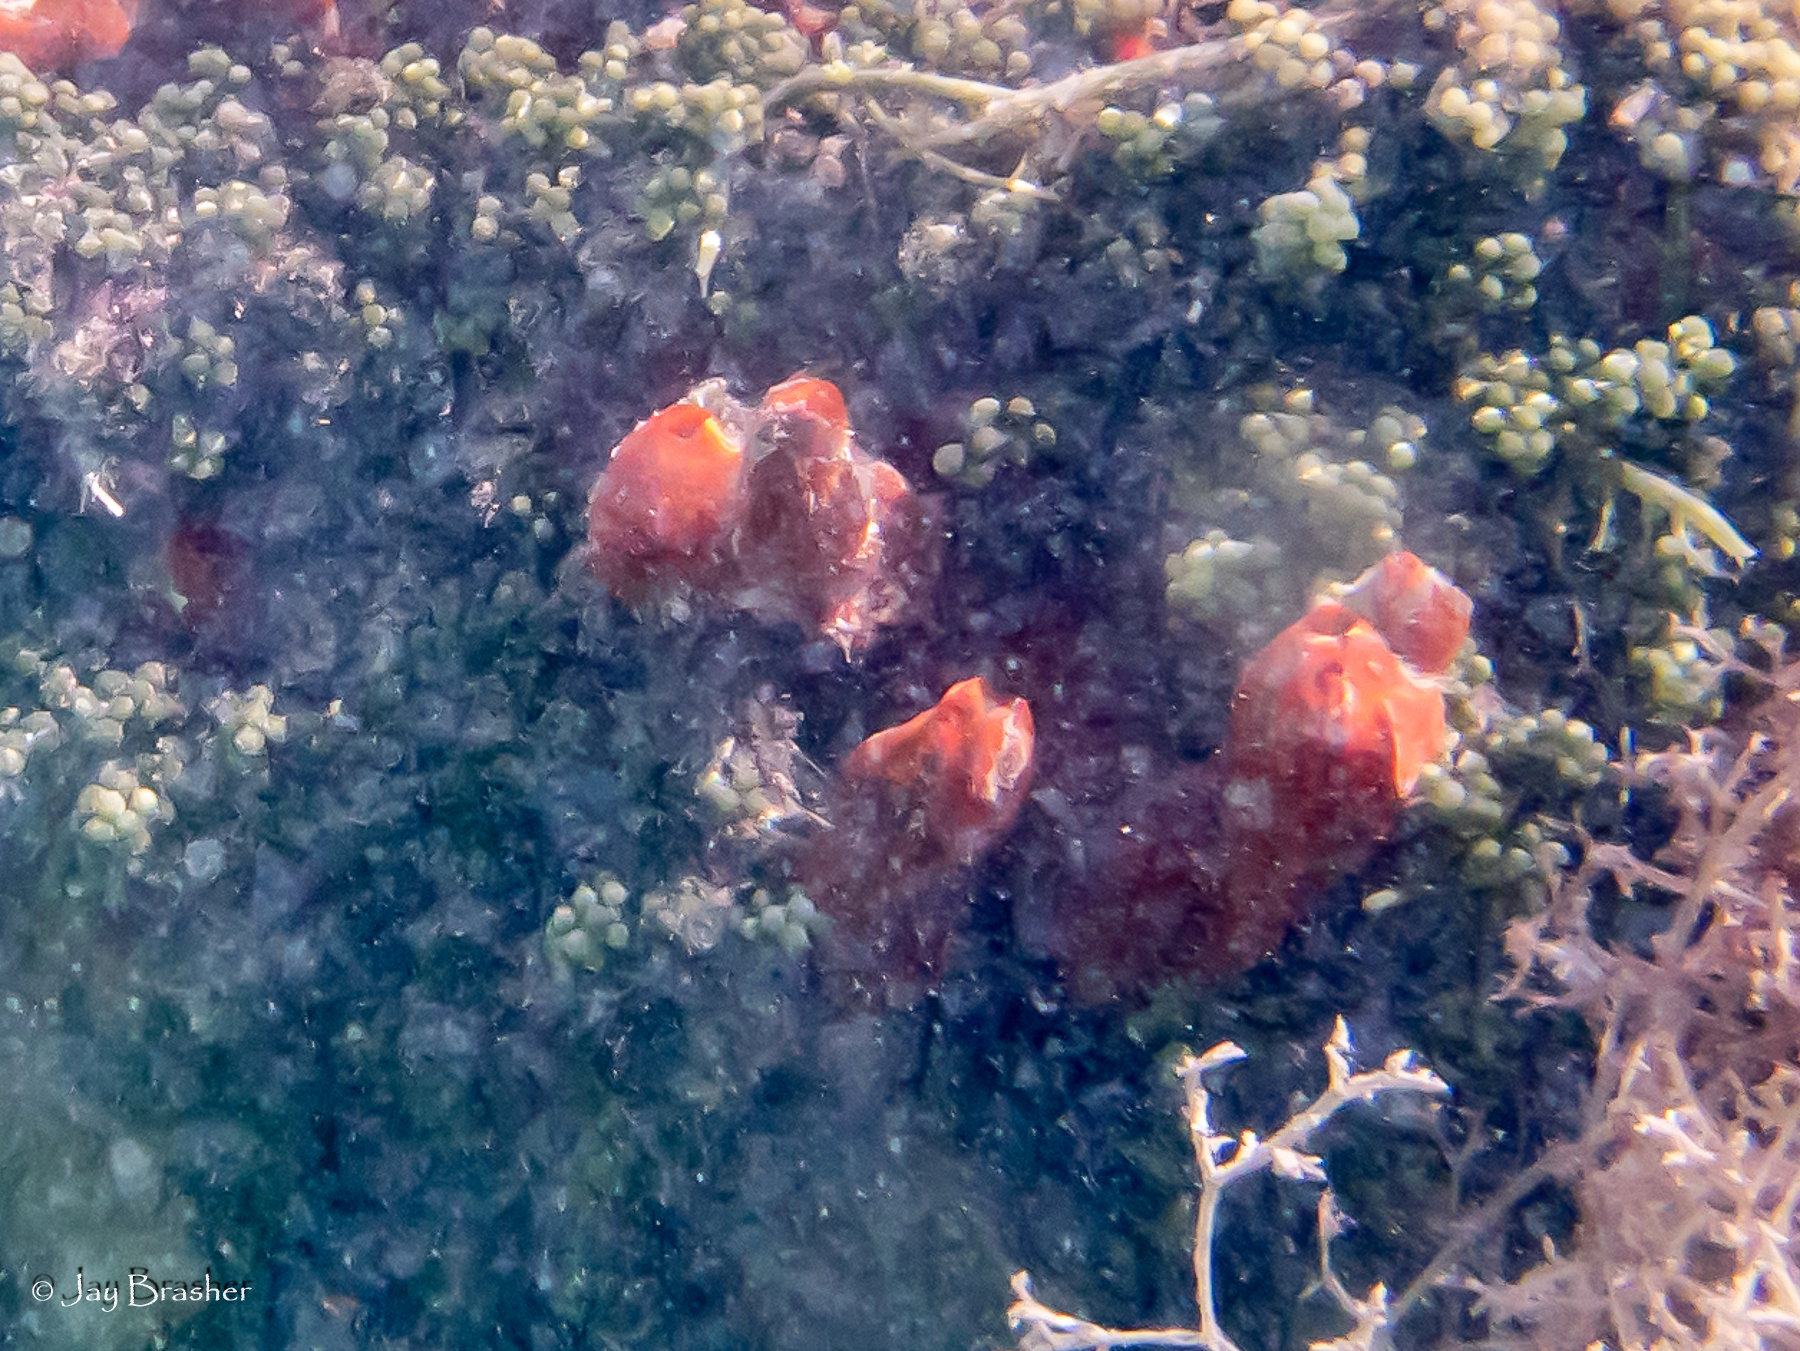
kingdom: Animalia
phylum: Porifera
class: Demospongiae
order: Poecilosclerida
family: Tedaniidae
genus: Tedania
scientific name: Tedania ignis
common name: Sponge
